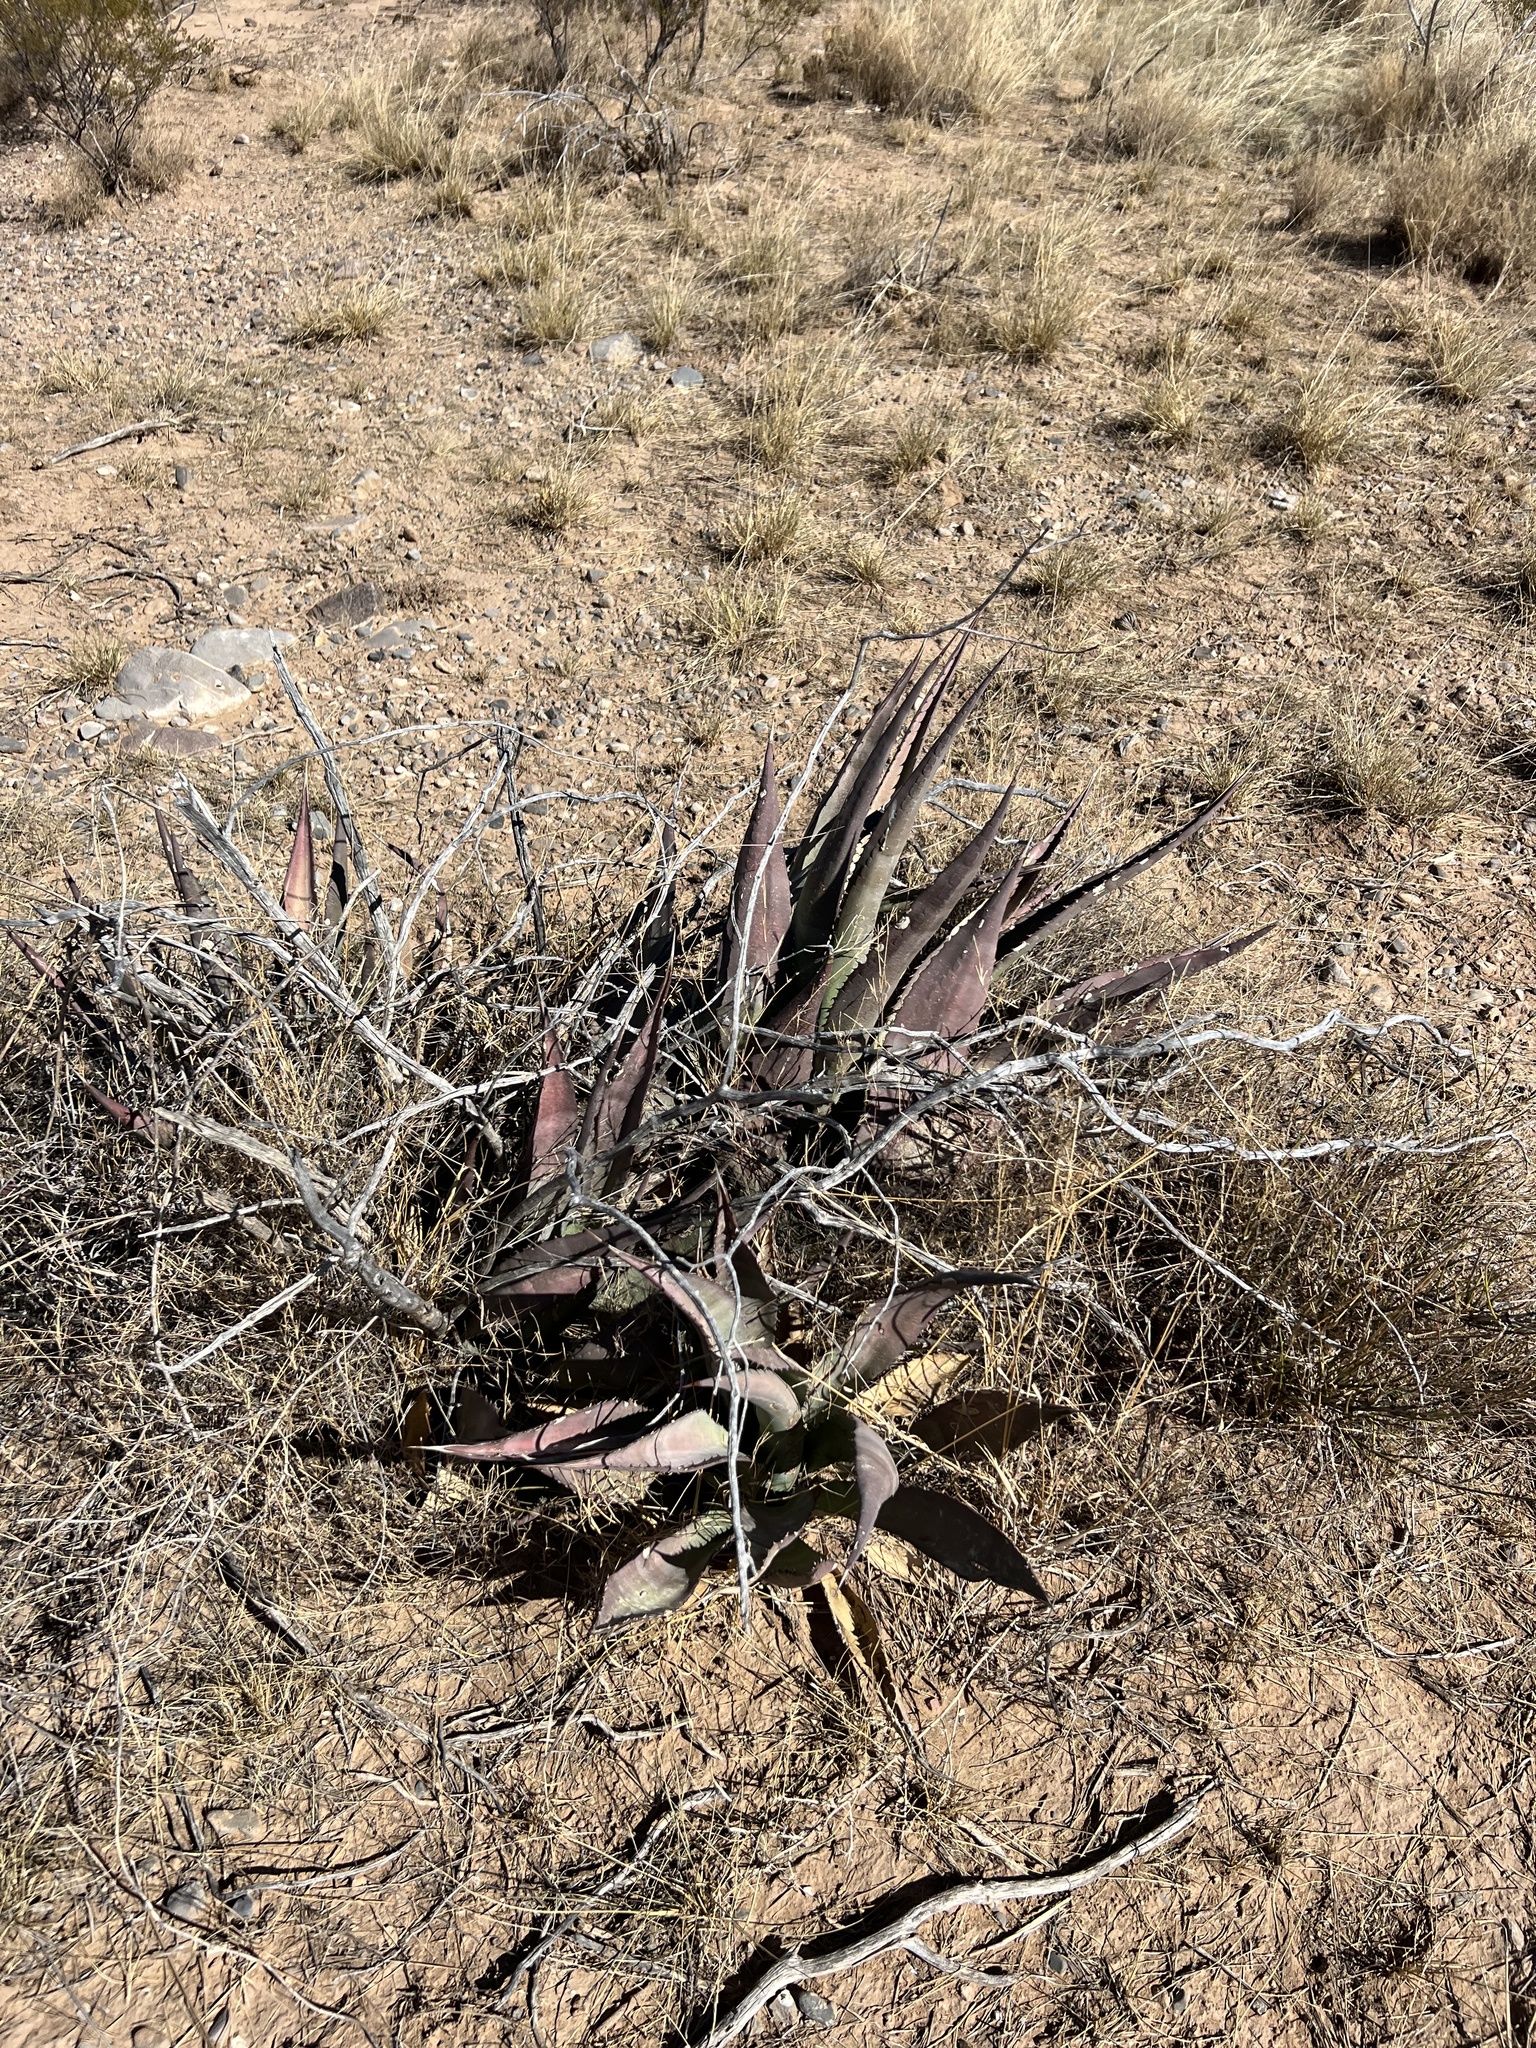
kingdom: Plantae
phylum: Tracheophyta
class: Liliopsida
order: Asparagales
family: Asparagaceae
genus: Agave
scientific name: Agave palmeri
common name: Palmer agave
